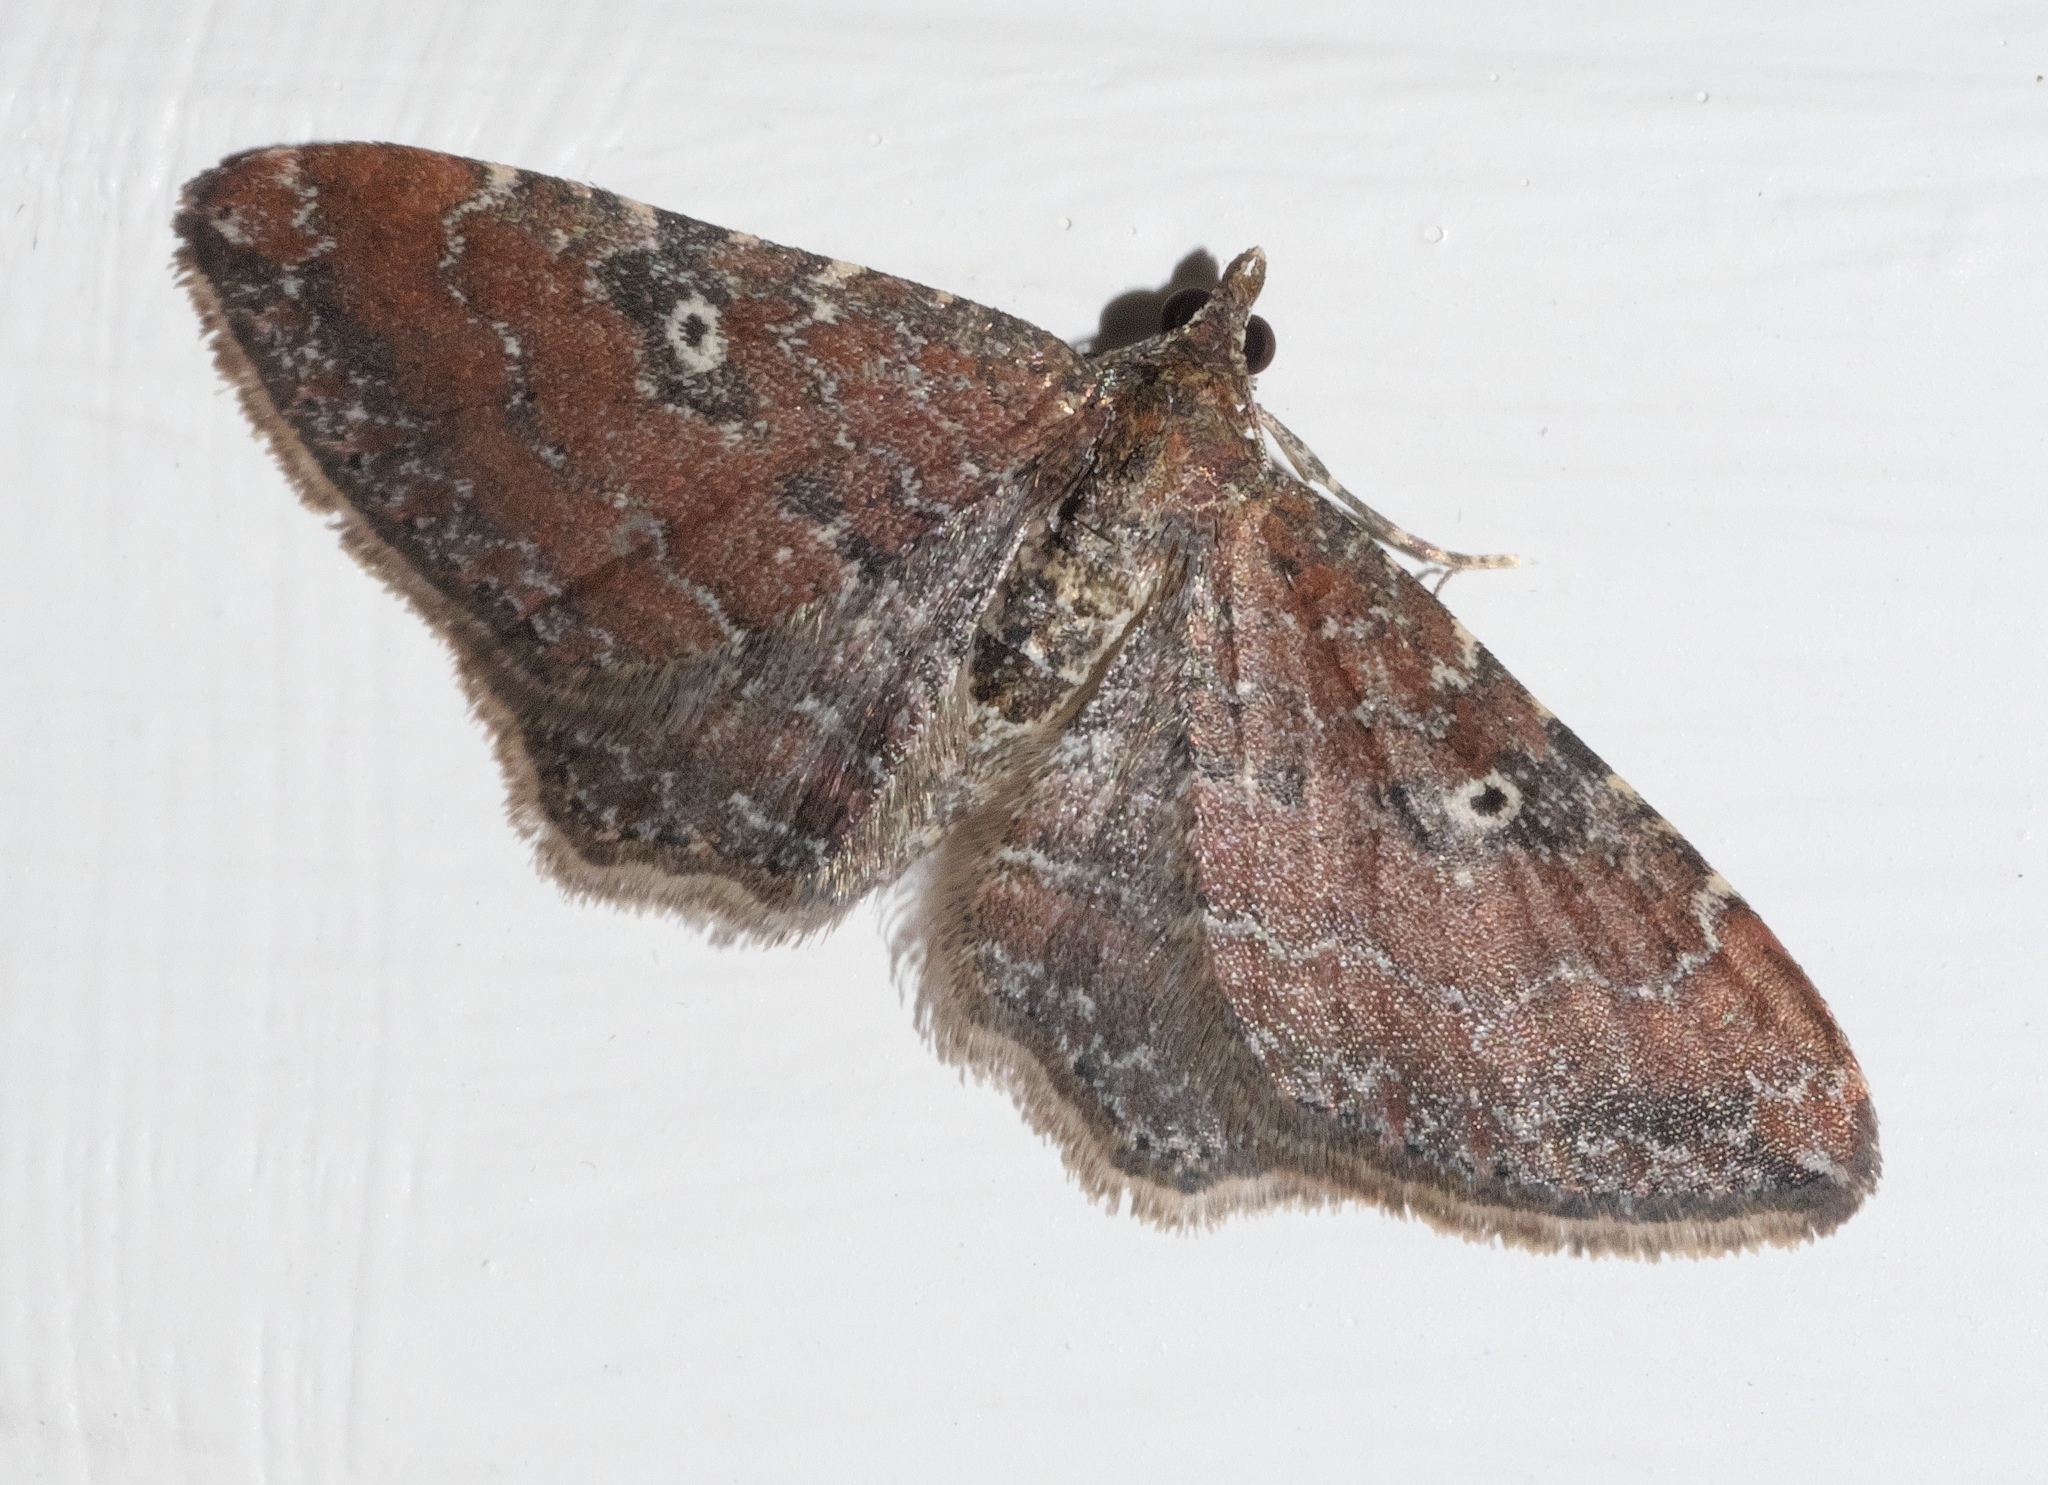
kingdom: Animalia
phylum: Arthropoda
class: Insecta
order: Lepidoptera
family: Geometridae
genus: Orthonama
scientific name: Orthonama obstipata
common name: The gem
